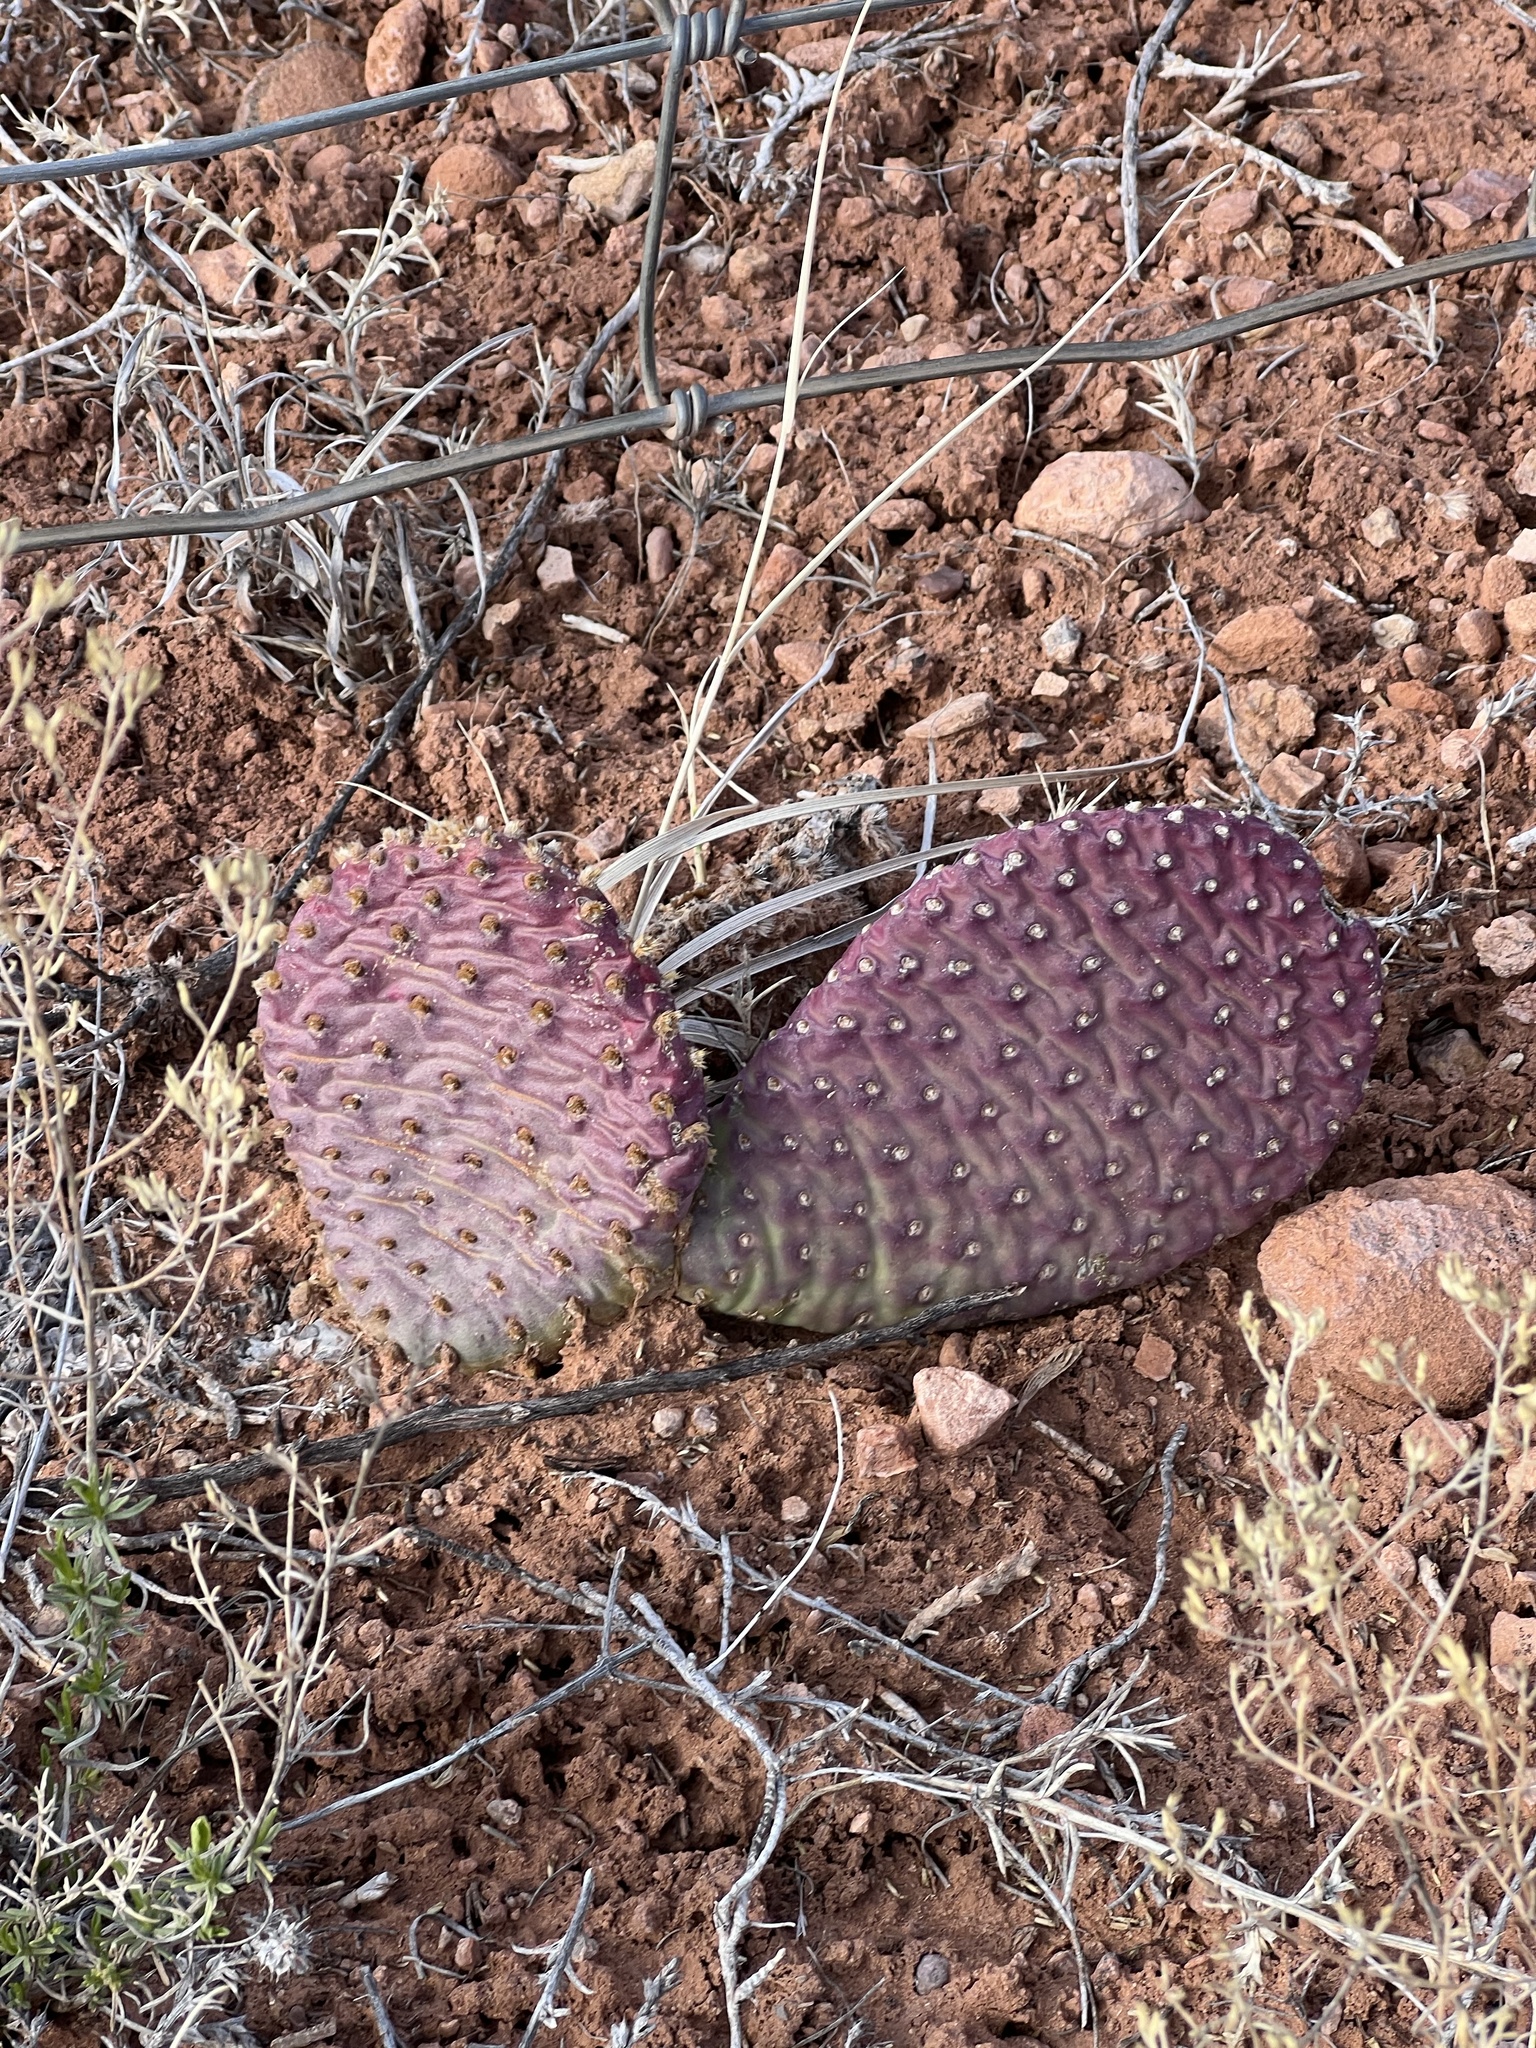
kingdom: Plantae
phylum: Tracheophyta
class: Magnoliopsida
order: Caryophyllales
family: Cactaceae
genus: Opuntia
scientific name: Opuntia aurea
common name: Golden prickly-pear
